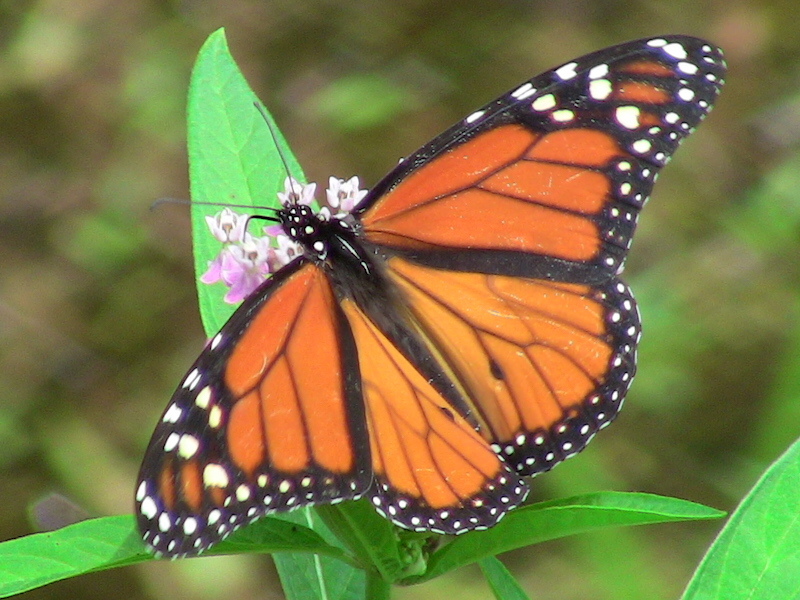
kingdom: Animalia
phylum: Arthropoda
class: Insecta
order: Lepidoptera
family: Nymphalidae
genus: Danaus
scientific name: Danaus plexippus
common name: Monarch
